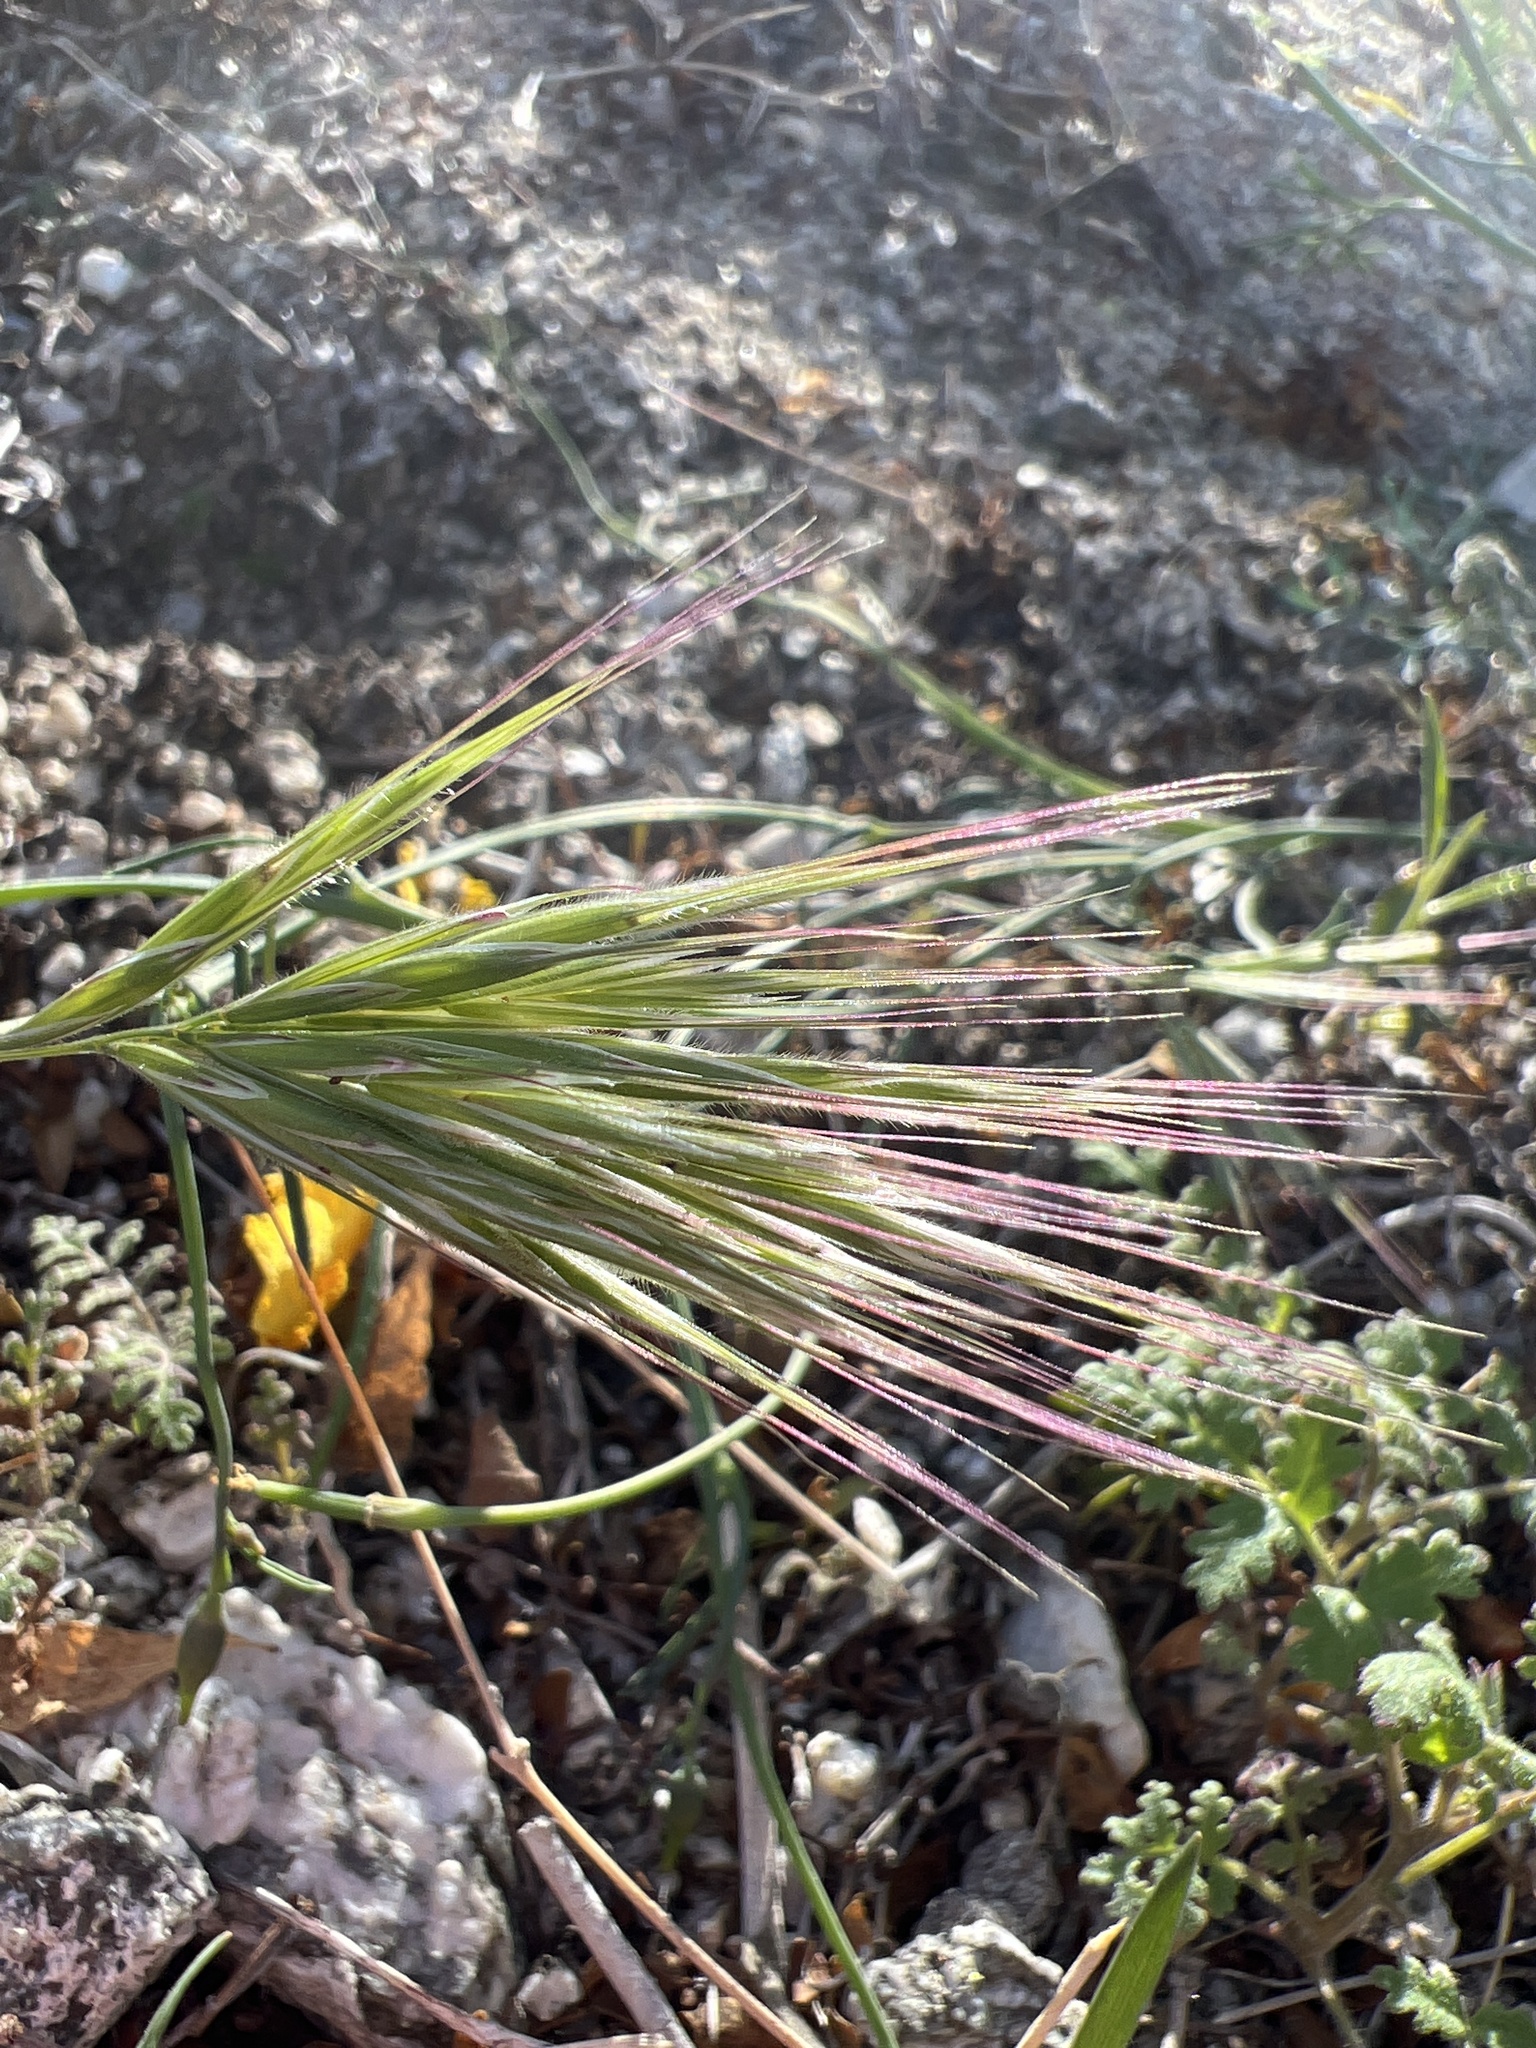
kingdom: Plantae
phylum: Tracheophyta
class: Liliopsida
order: Poales
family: Poaceae
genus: Bromus
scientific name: Bromus rubens
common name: Red brome
